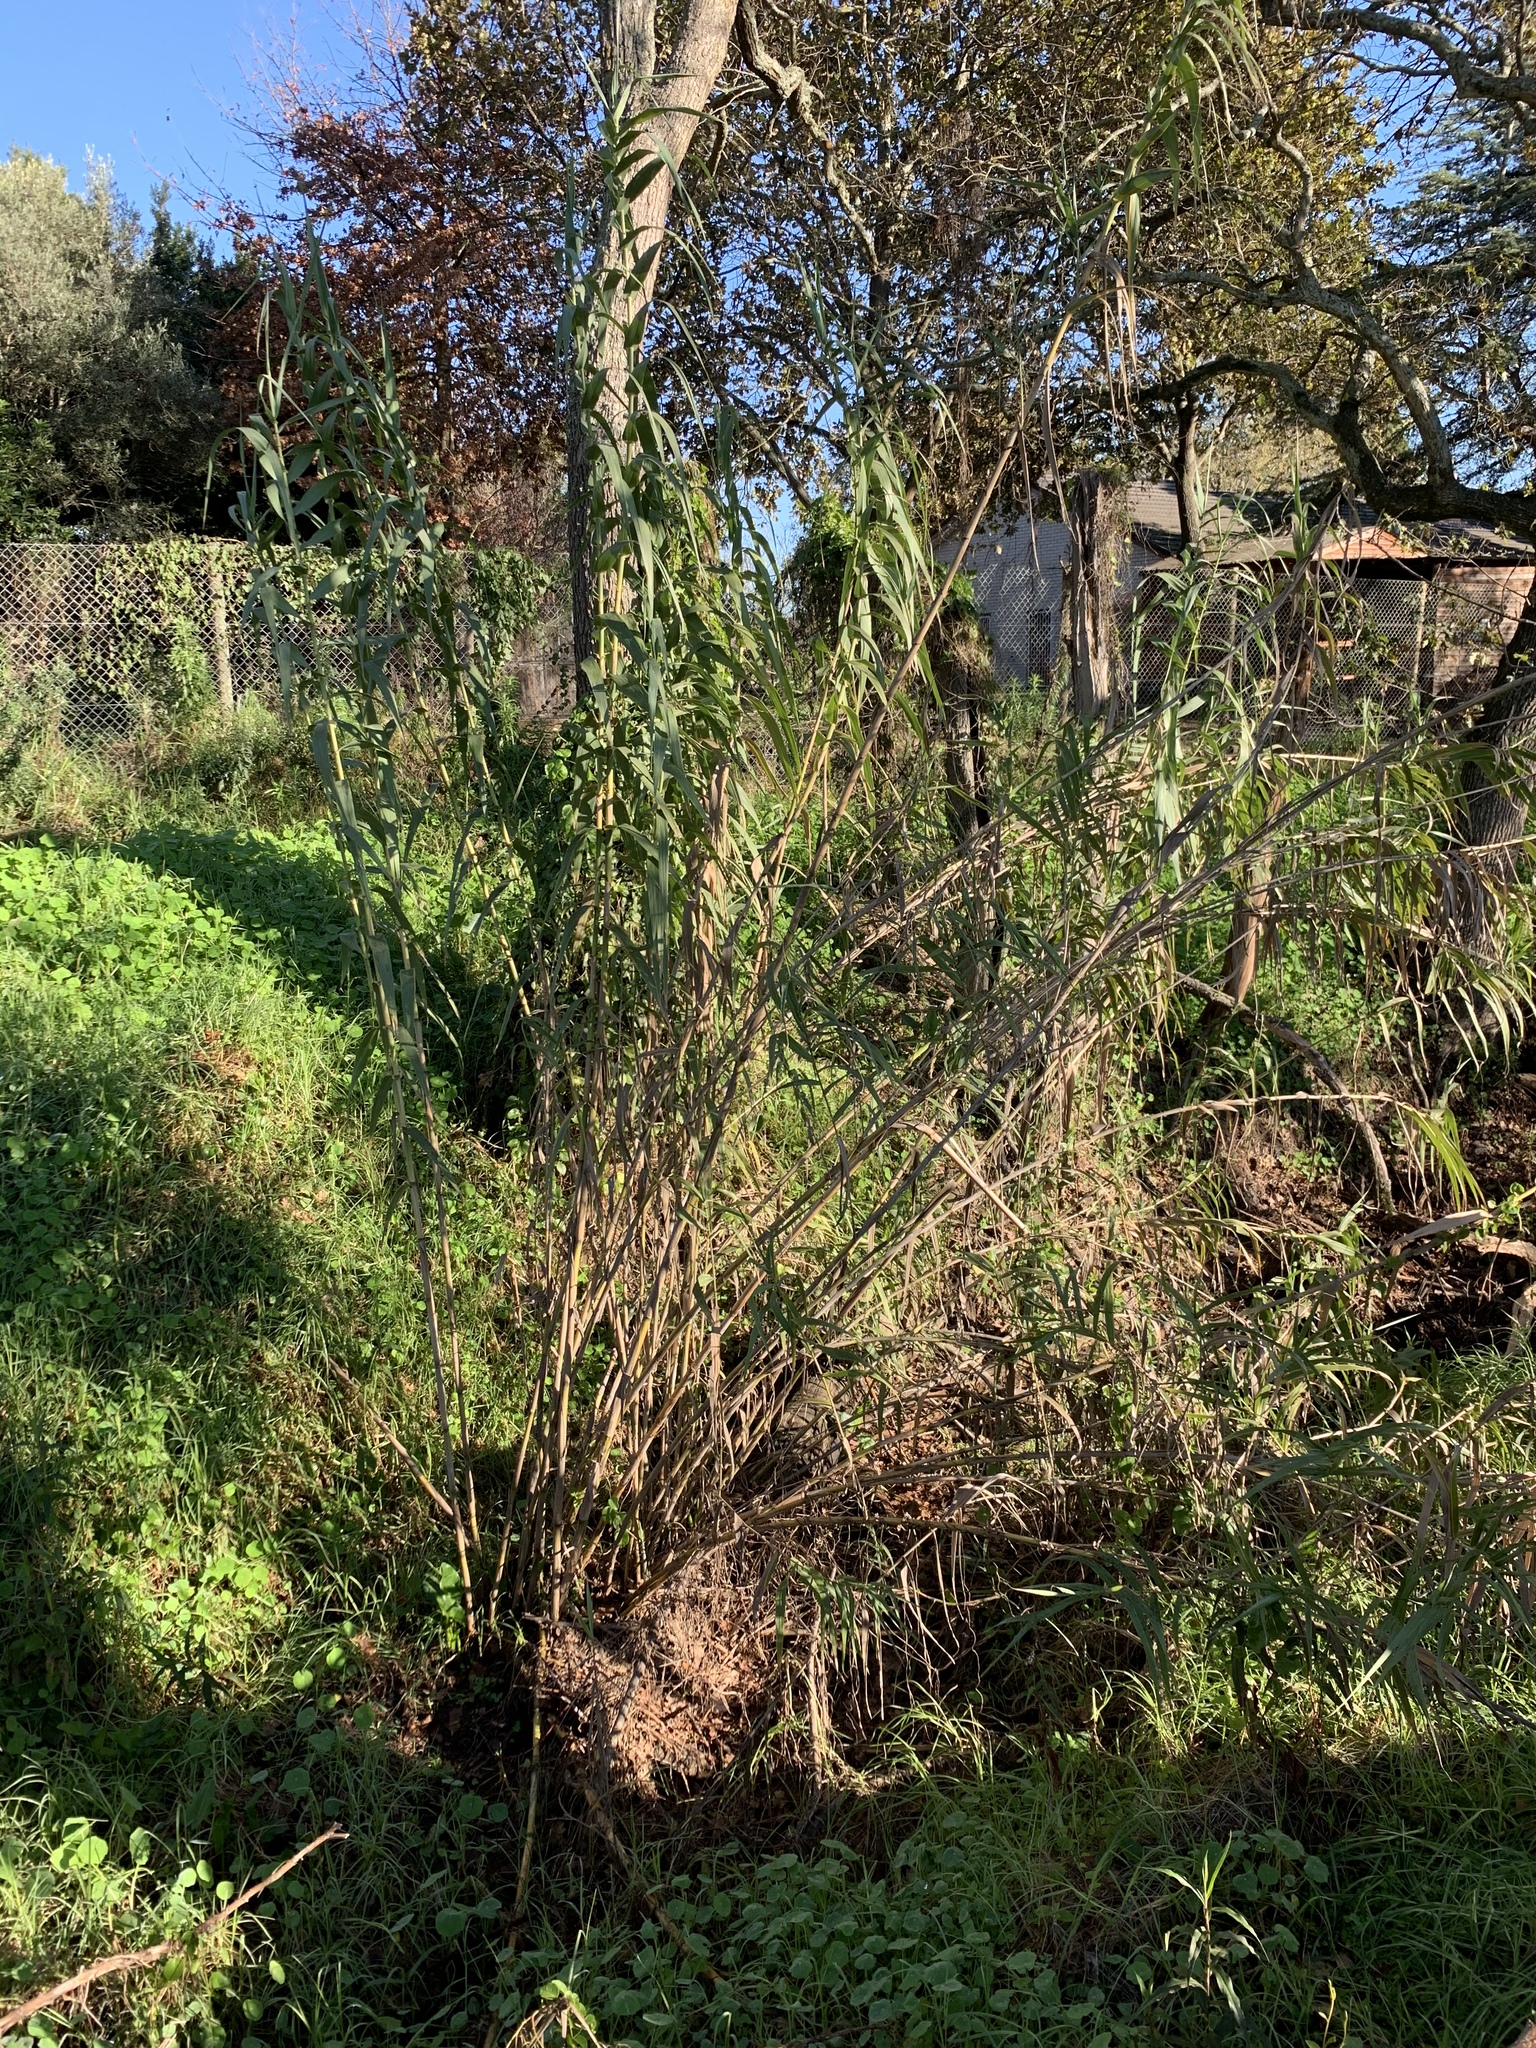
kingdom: Plantae
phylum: Tracheophyta
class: Liliopsida
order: Poales
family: Poaceae
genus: Arundo
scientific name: Arundo donax
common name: Giant reed
